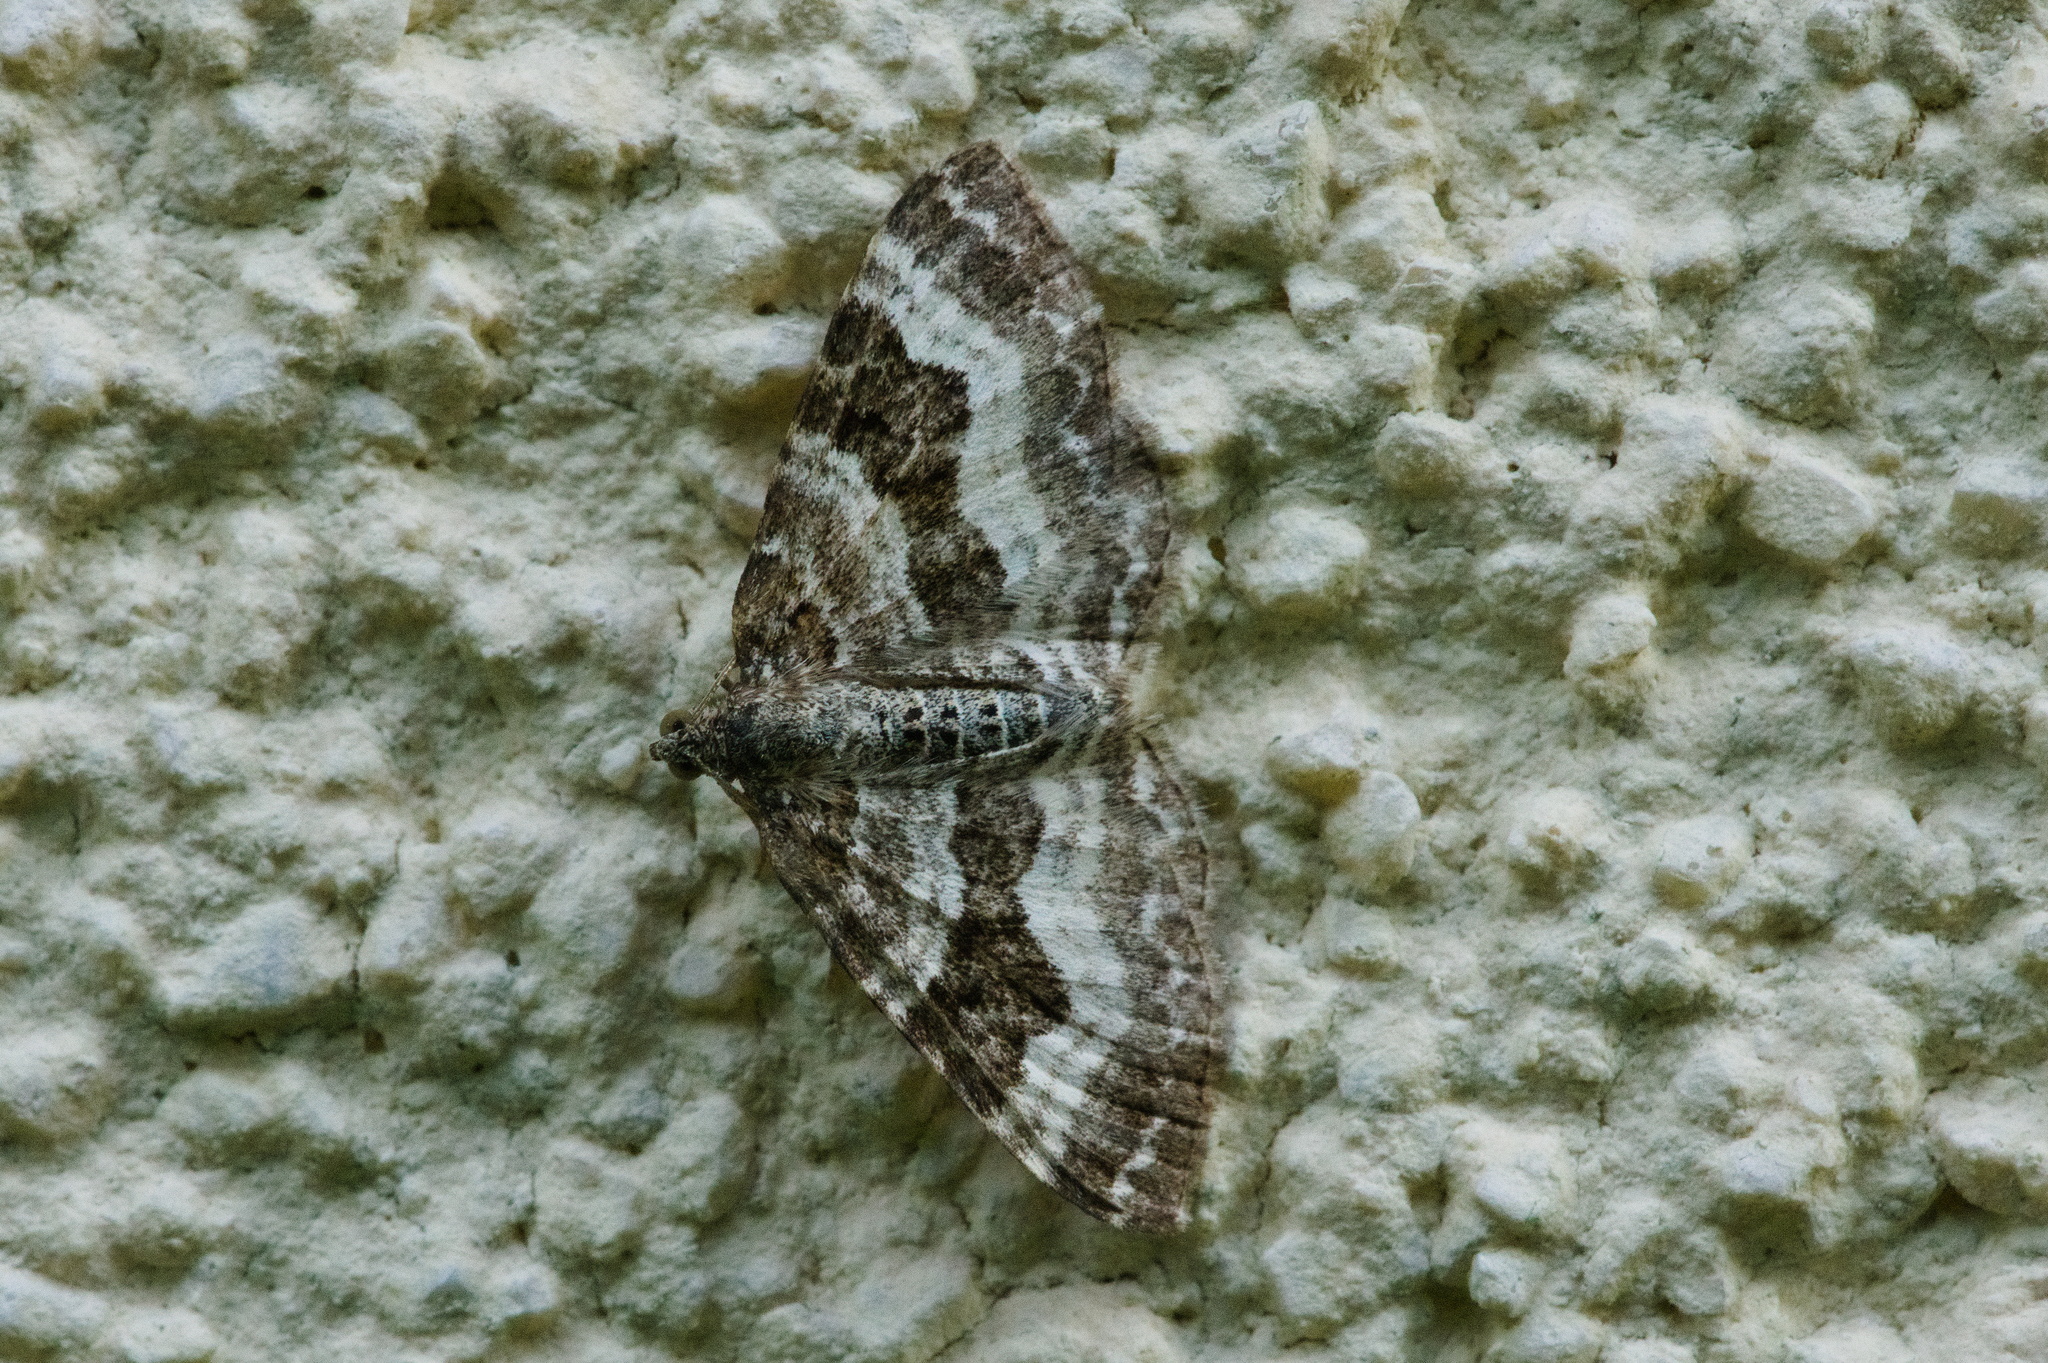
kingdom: Animalia
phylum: Arthropoda
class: Insecta
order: Lepidoptera
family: Geometridae
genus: Epirrhoe
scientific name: Epirrhoe alternata
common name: Common carpet
